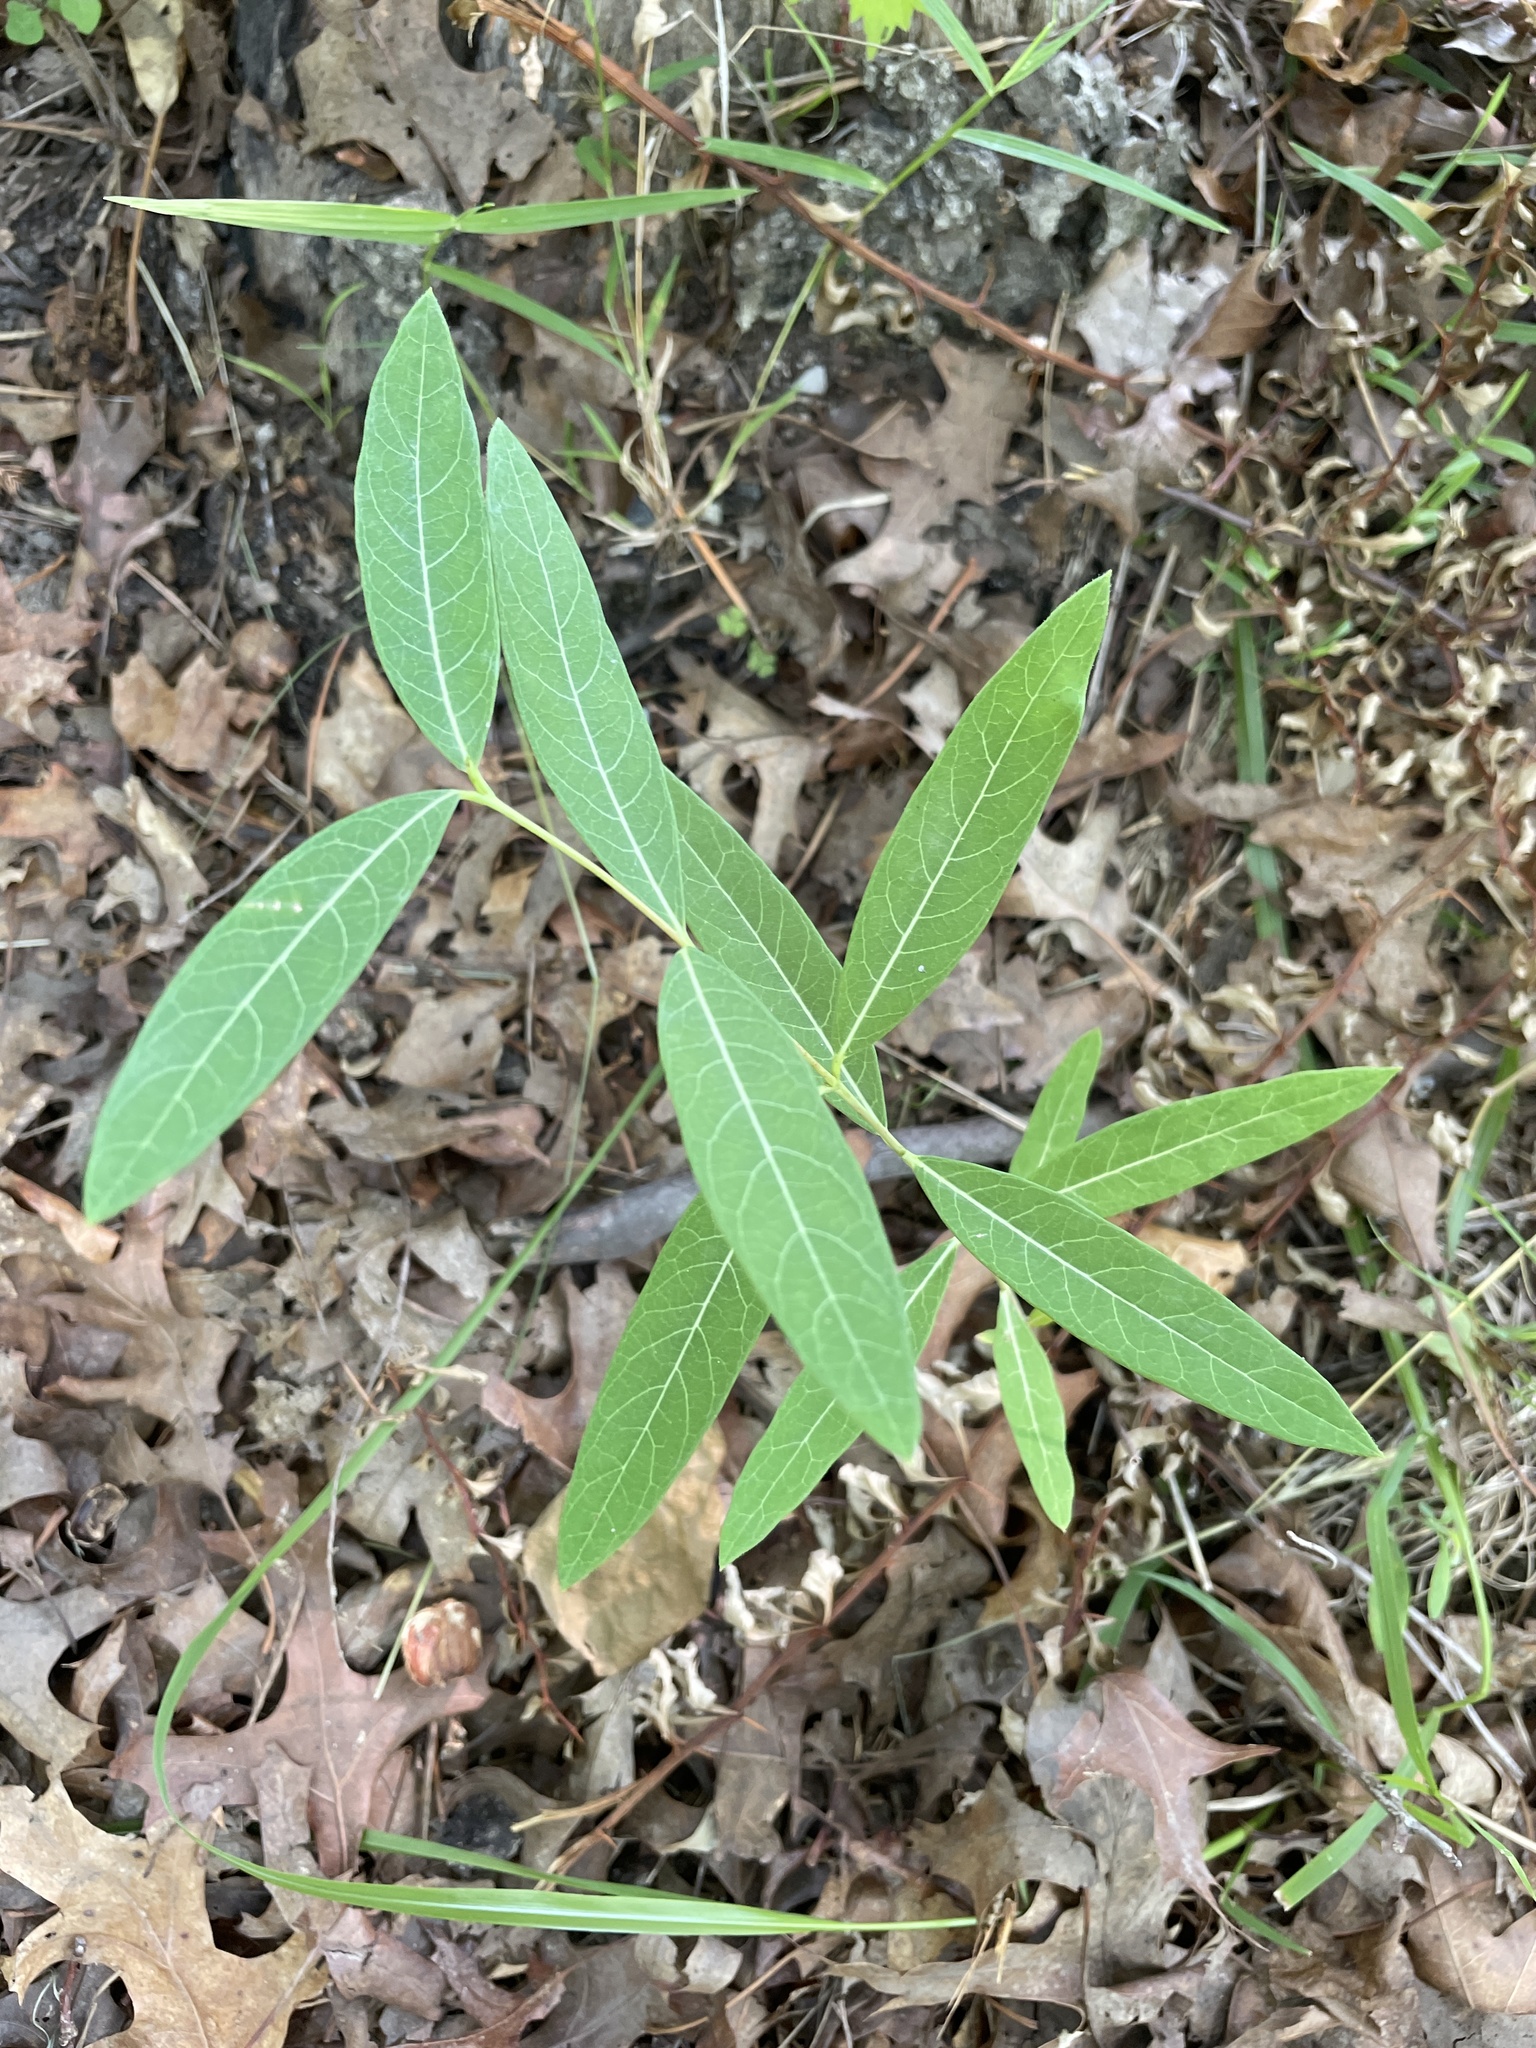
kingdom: Plantae
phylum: Tracheophyta
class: Magnoliopsida
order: Gentianales
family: Apocynaceae
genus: Apocynum
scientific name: Apocynum cannabinum
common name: Hemp dogbane
